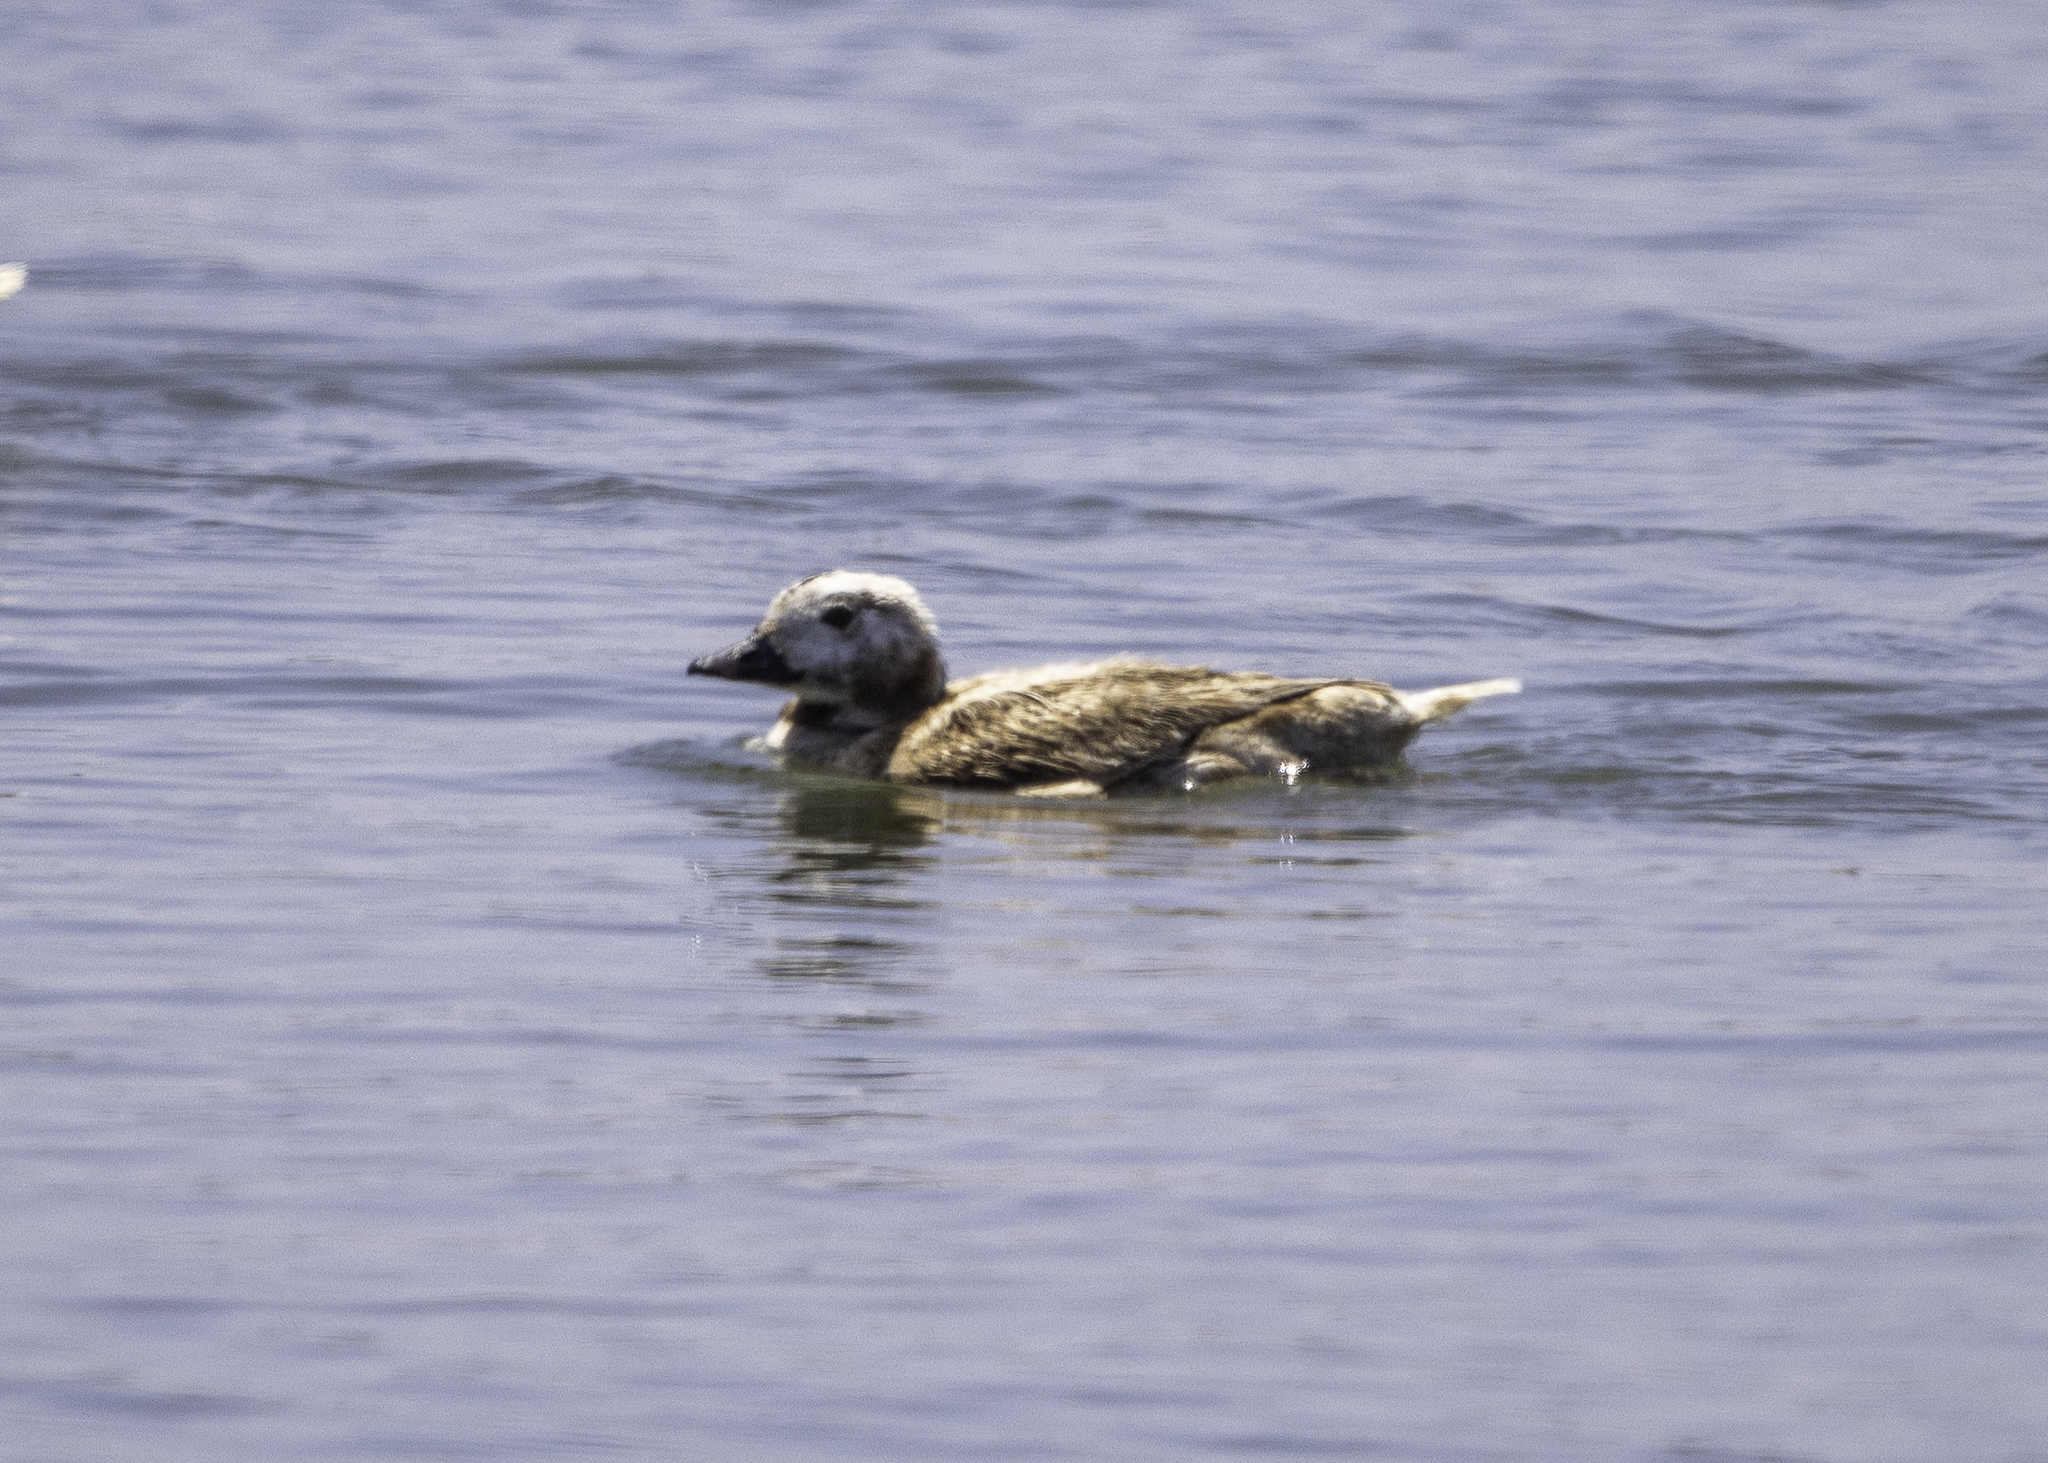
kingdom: Animalia
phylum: Chordata
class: Aves
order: Anseriformes
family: Anatidae
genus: Clangula
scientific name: Clangula hyemalis
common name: Long-tailed duck
